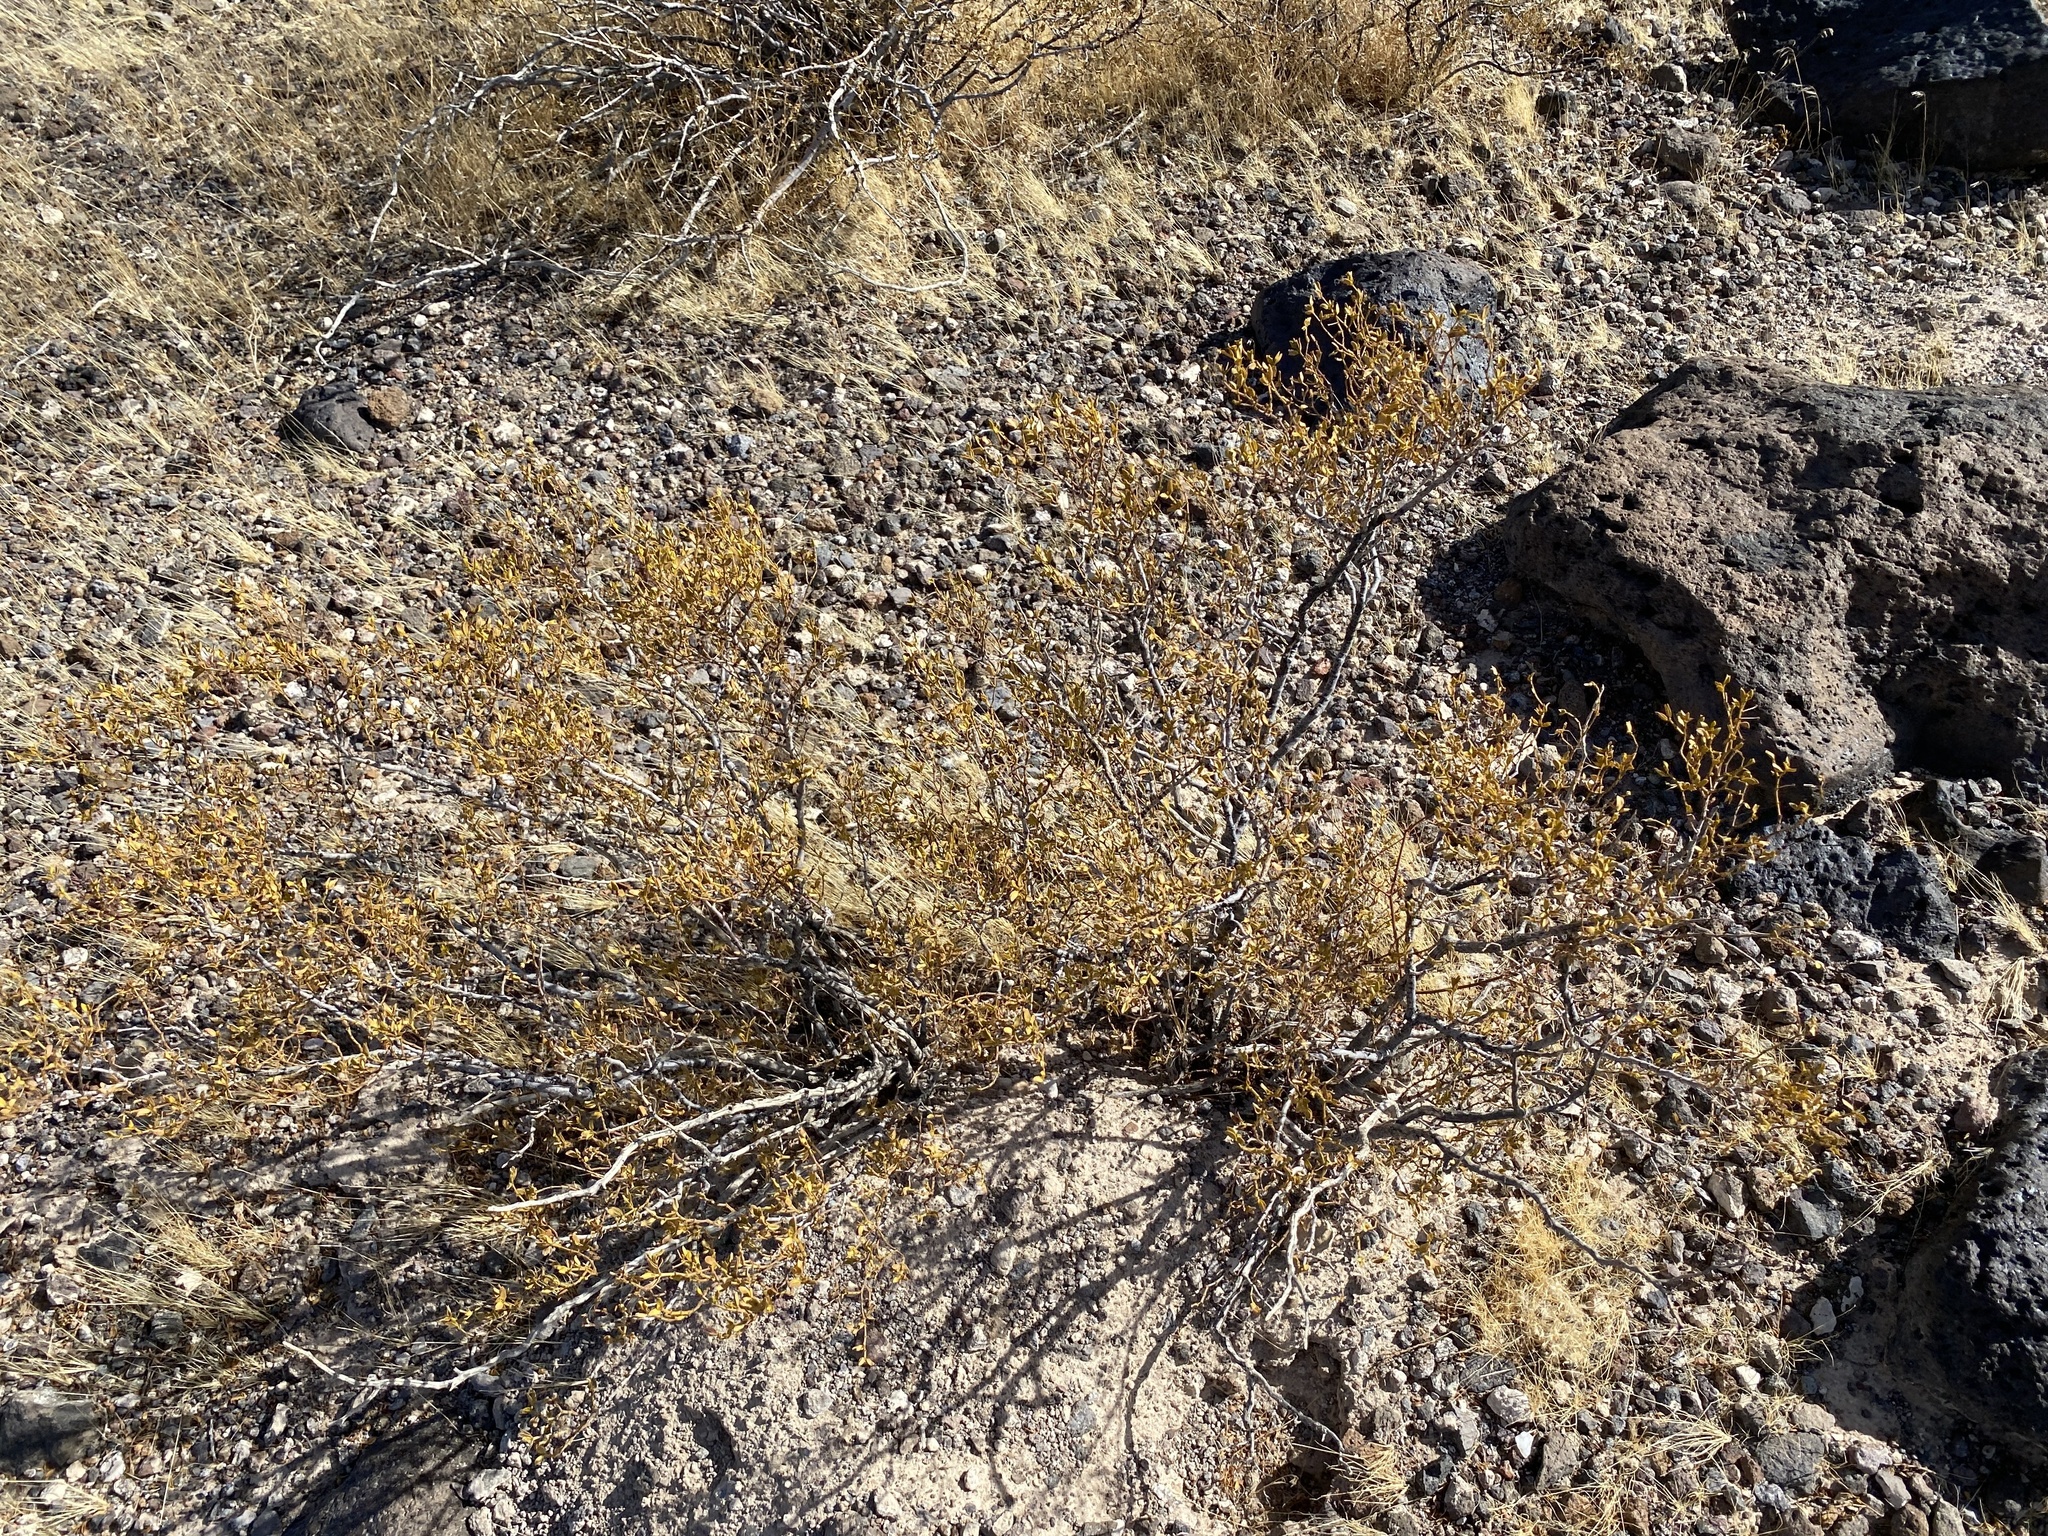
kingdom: Plantae
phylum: Tracheophyta
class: Magnoliopsida
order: Zygophyllales
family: Zygophyllaceae
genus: Larrea
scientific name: Larrea tridentata
